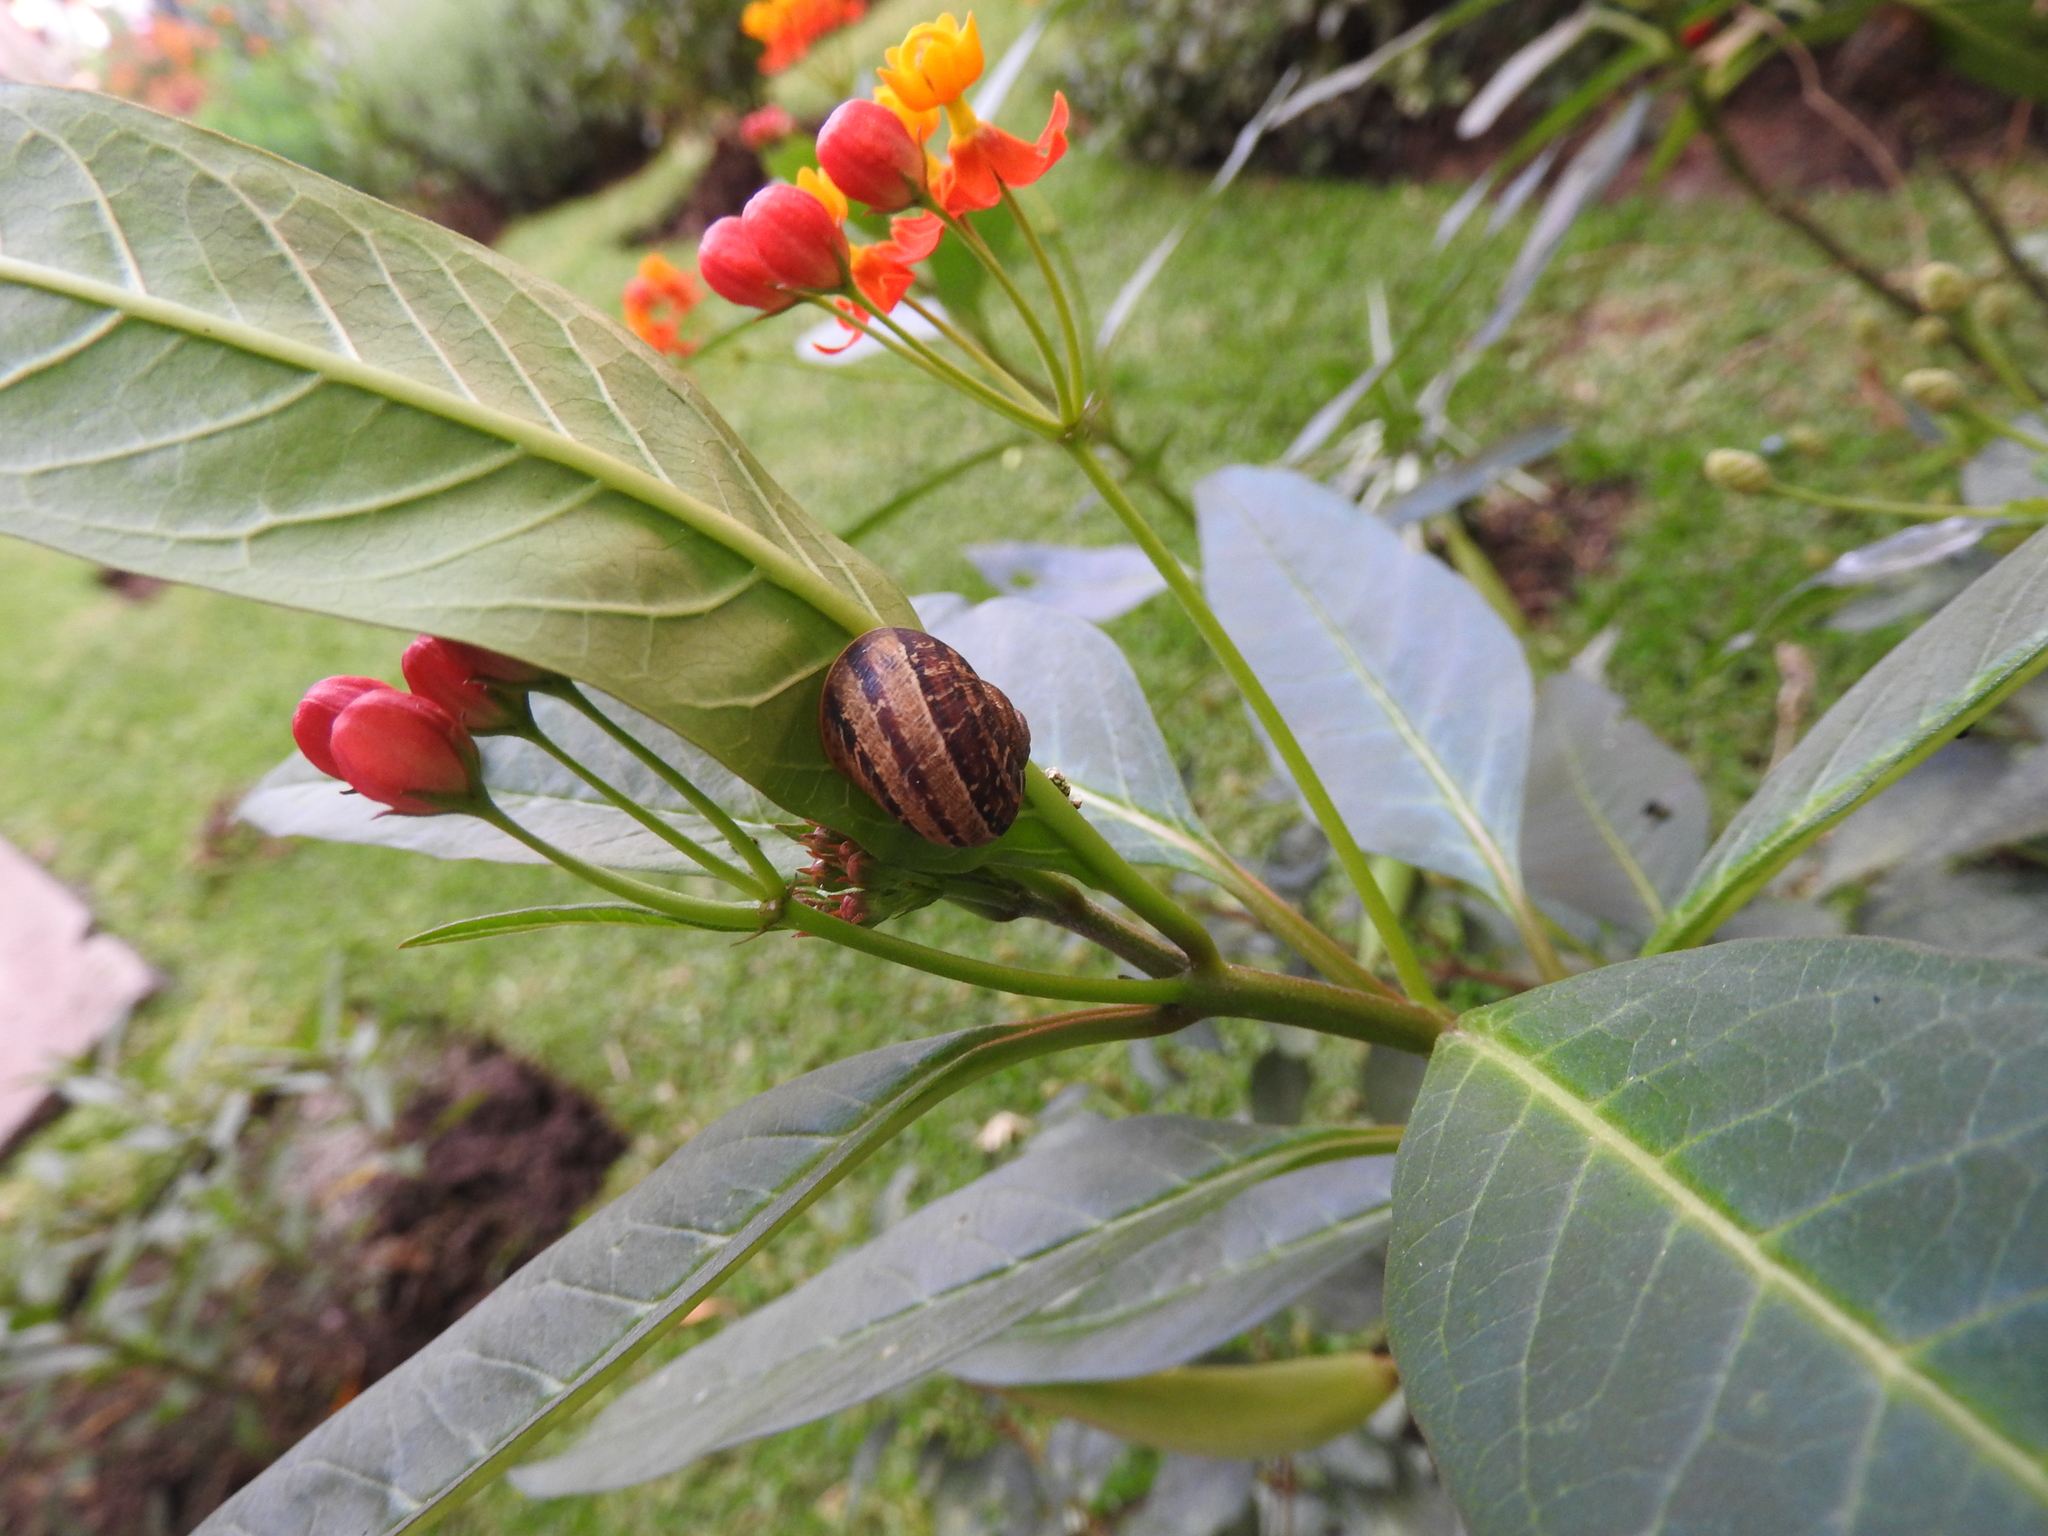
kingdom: Animalia
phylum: Mollusca
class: Gastropoda
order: Stylommatophora
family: Helicidae
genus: Cornu
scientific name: Cornu aspersum
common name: Brown garden snail
